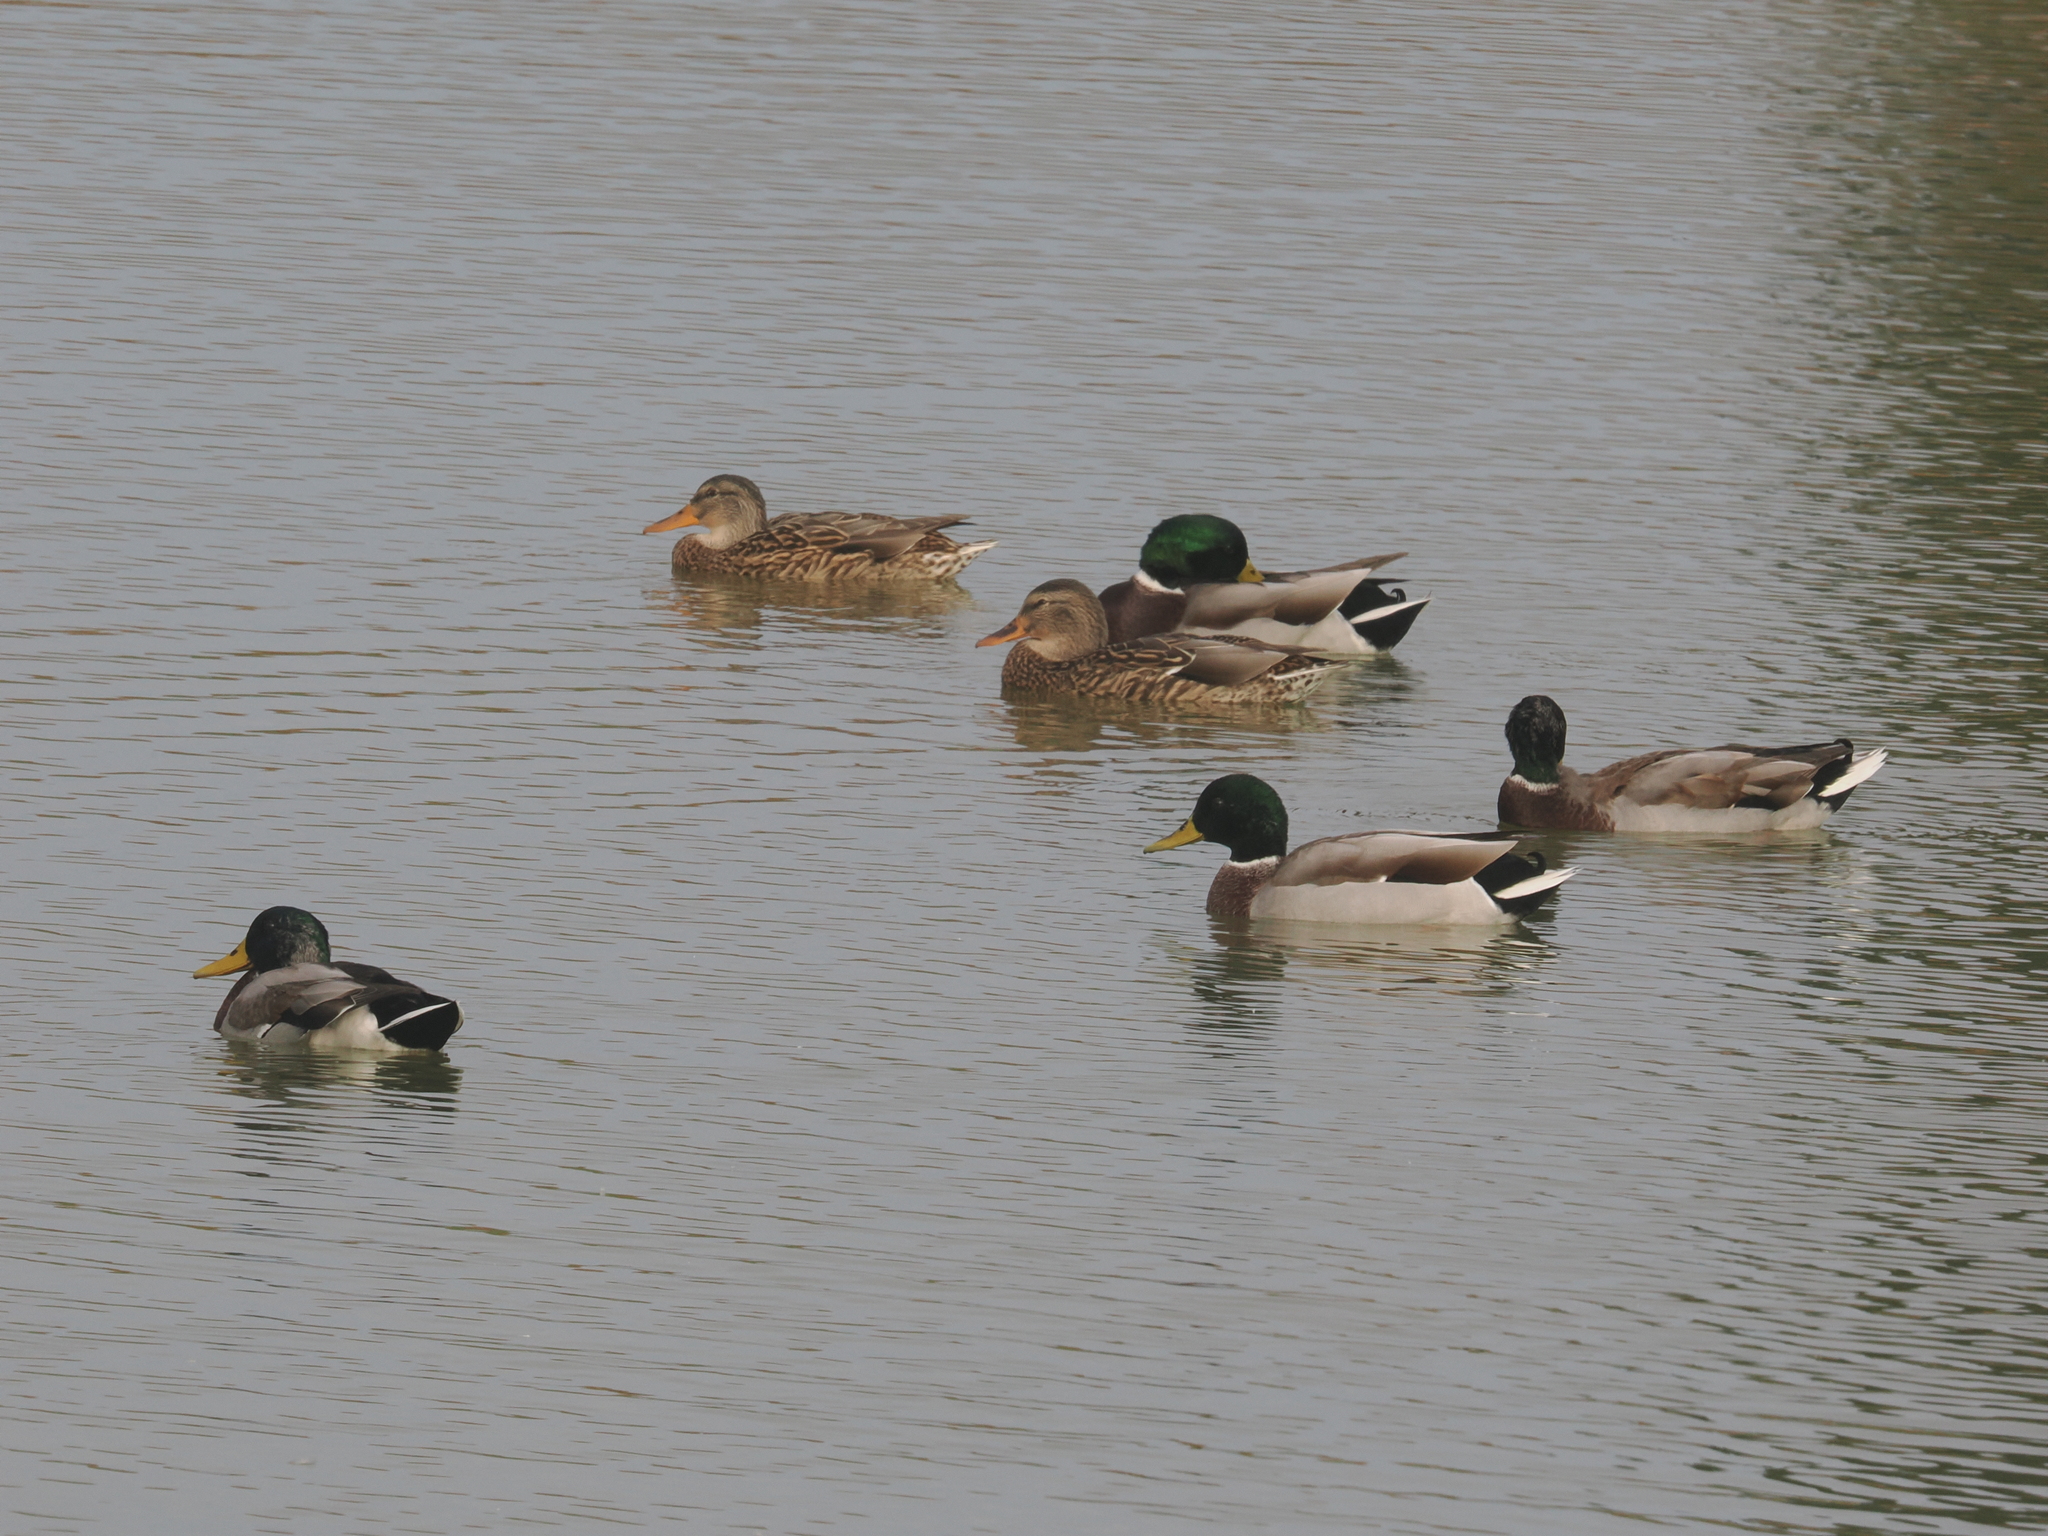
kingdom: Animalia
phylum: Chordata
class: Aves
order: Anseriformes
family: Anatidae
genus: Anas
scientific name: Anas platyrhynchos
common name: Mallard
